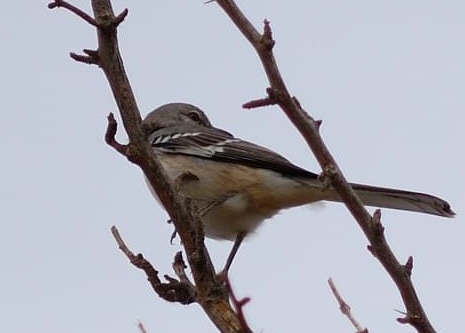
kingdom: Animalia
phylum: Chordata
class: Aves
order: Passeriformes
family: Mimidae
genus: Mimus
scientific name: Mimus polyglottos
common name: Northern mockingbird
